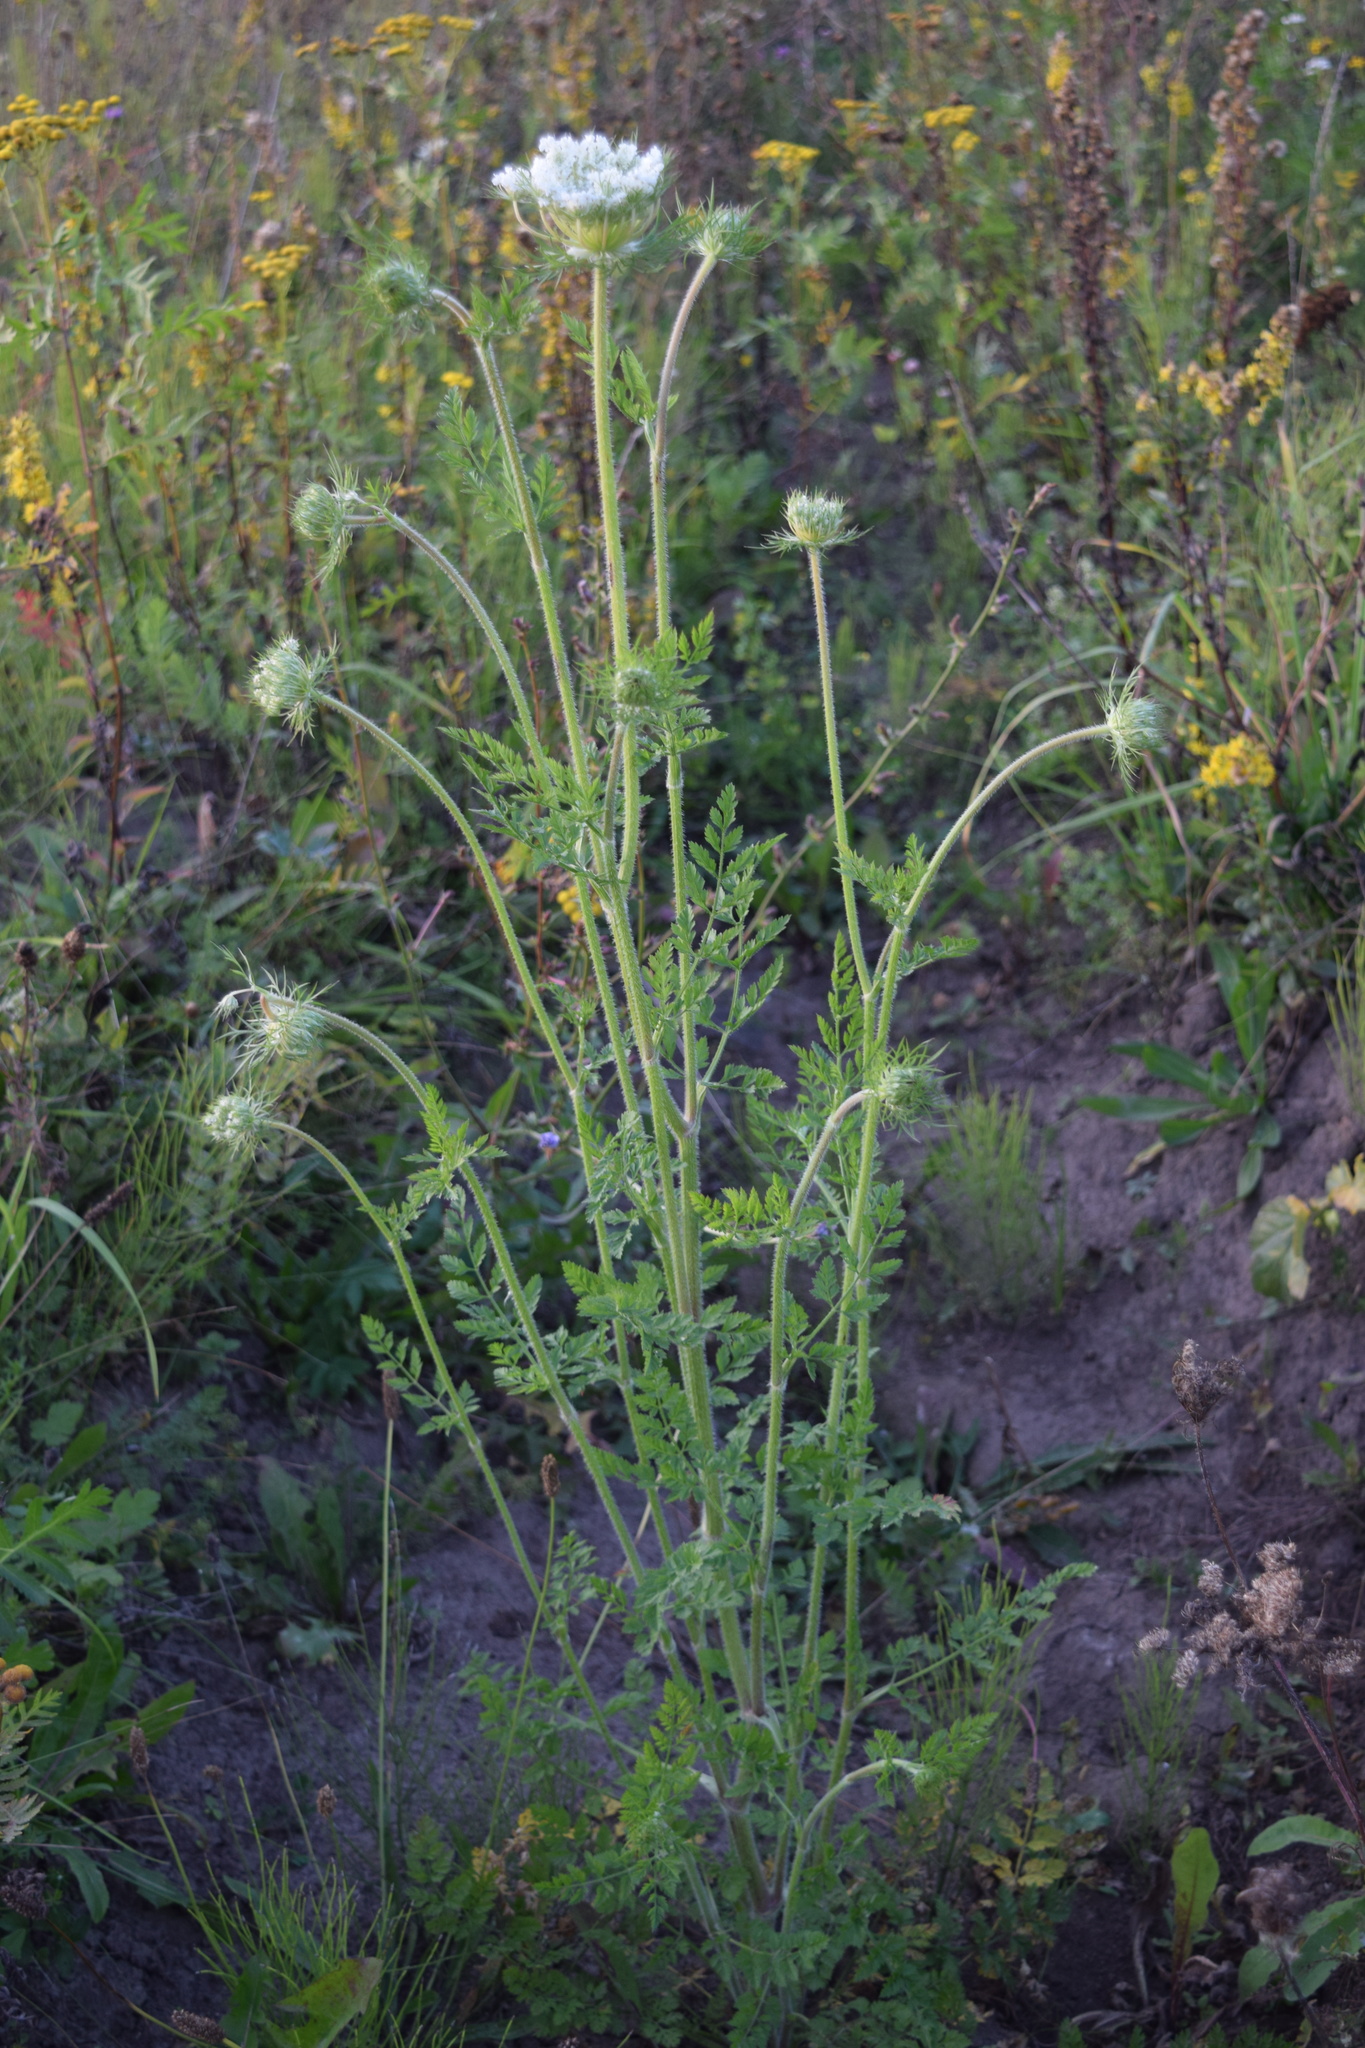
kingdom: Plantae
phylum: Tracheophyta
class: Magnoliopsida
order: Apiales
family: Apiaceae
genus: Daucus
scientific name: Daucus carota
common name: Wild carrot
